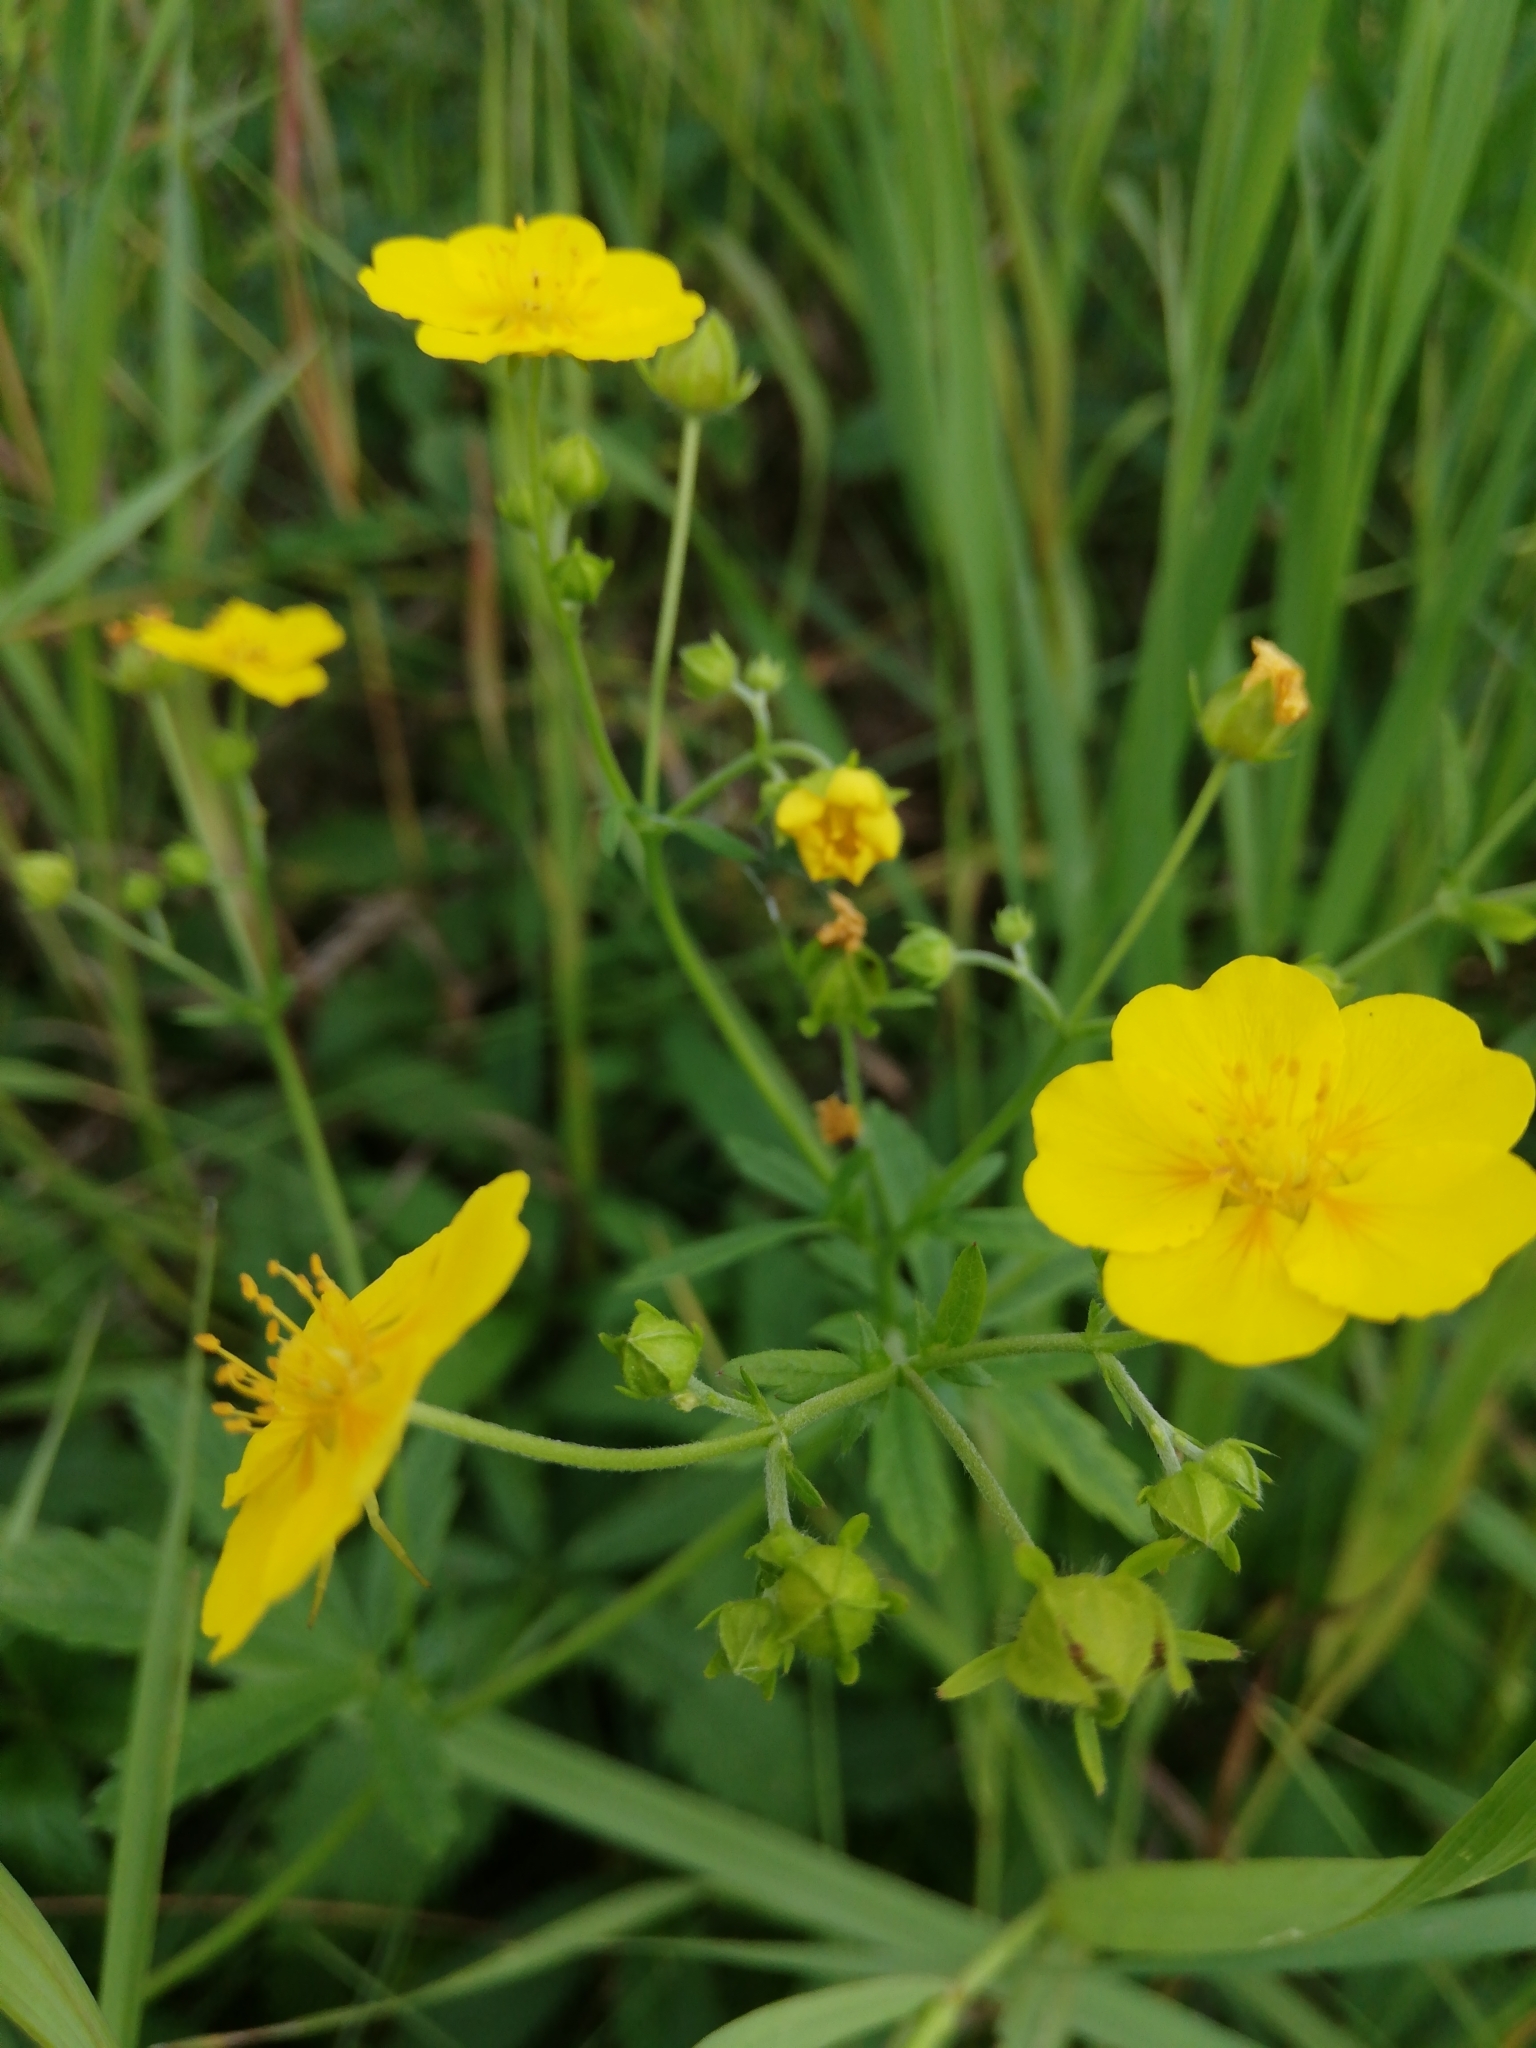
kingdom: Plantae
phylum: Tracheophyta
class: Magnoliopsida
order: Rosales
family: Rosaceae
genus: Potentilla
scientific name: Potentilla chrysantha
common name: Thuringian cinquefoil
